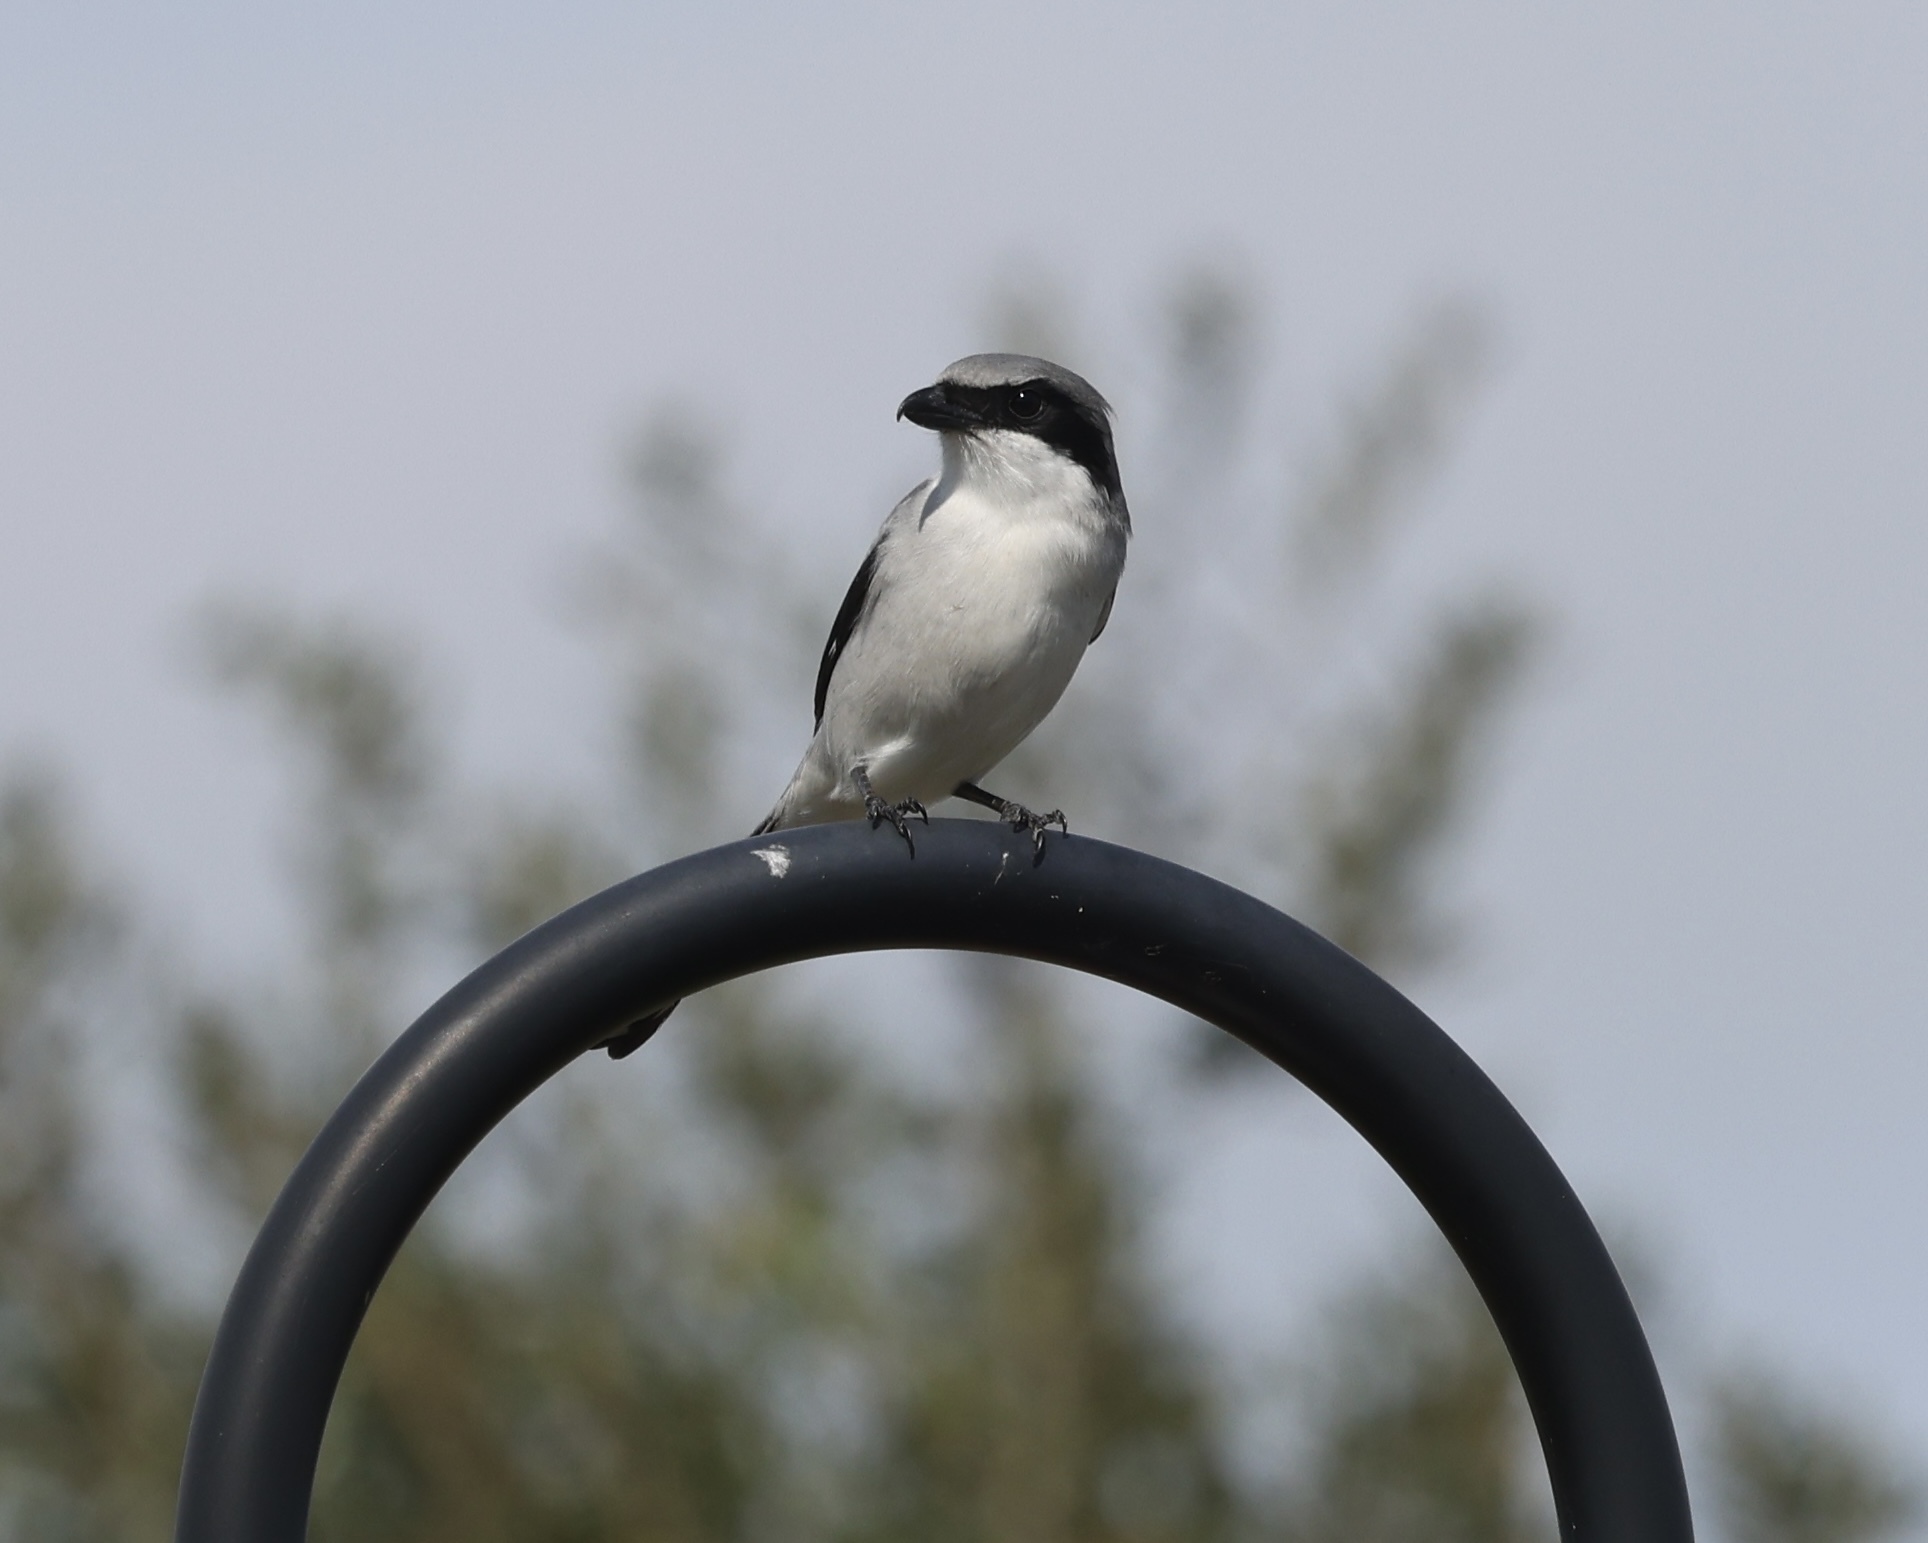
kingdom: Animalia
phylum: Chordata
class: Aves
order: Passeriformes
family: Laniidae
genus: Lanius
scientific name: Lanius ludovicianus
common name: Loggerhead shrike
